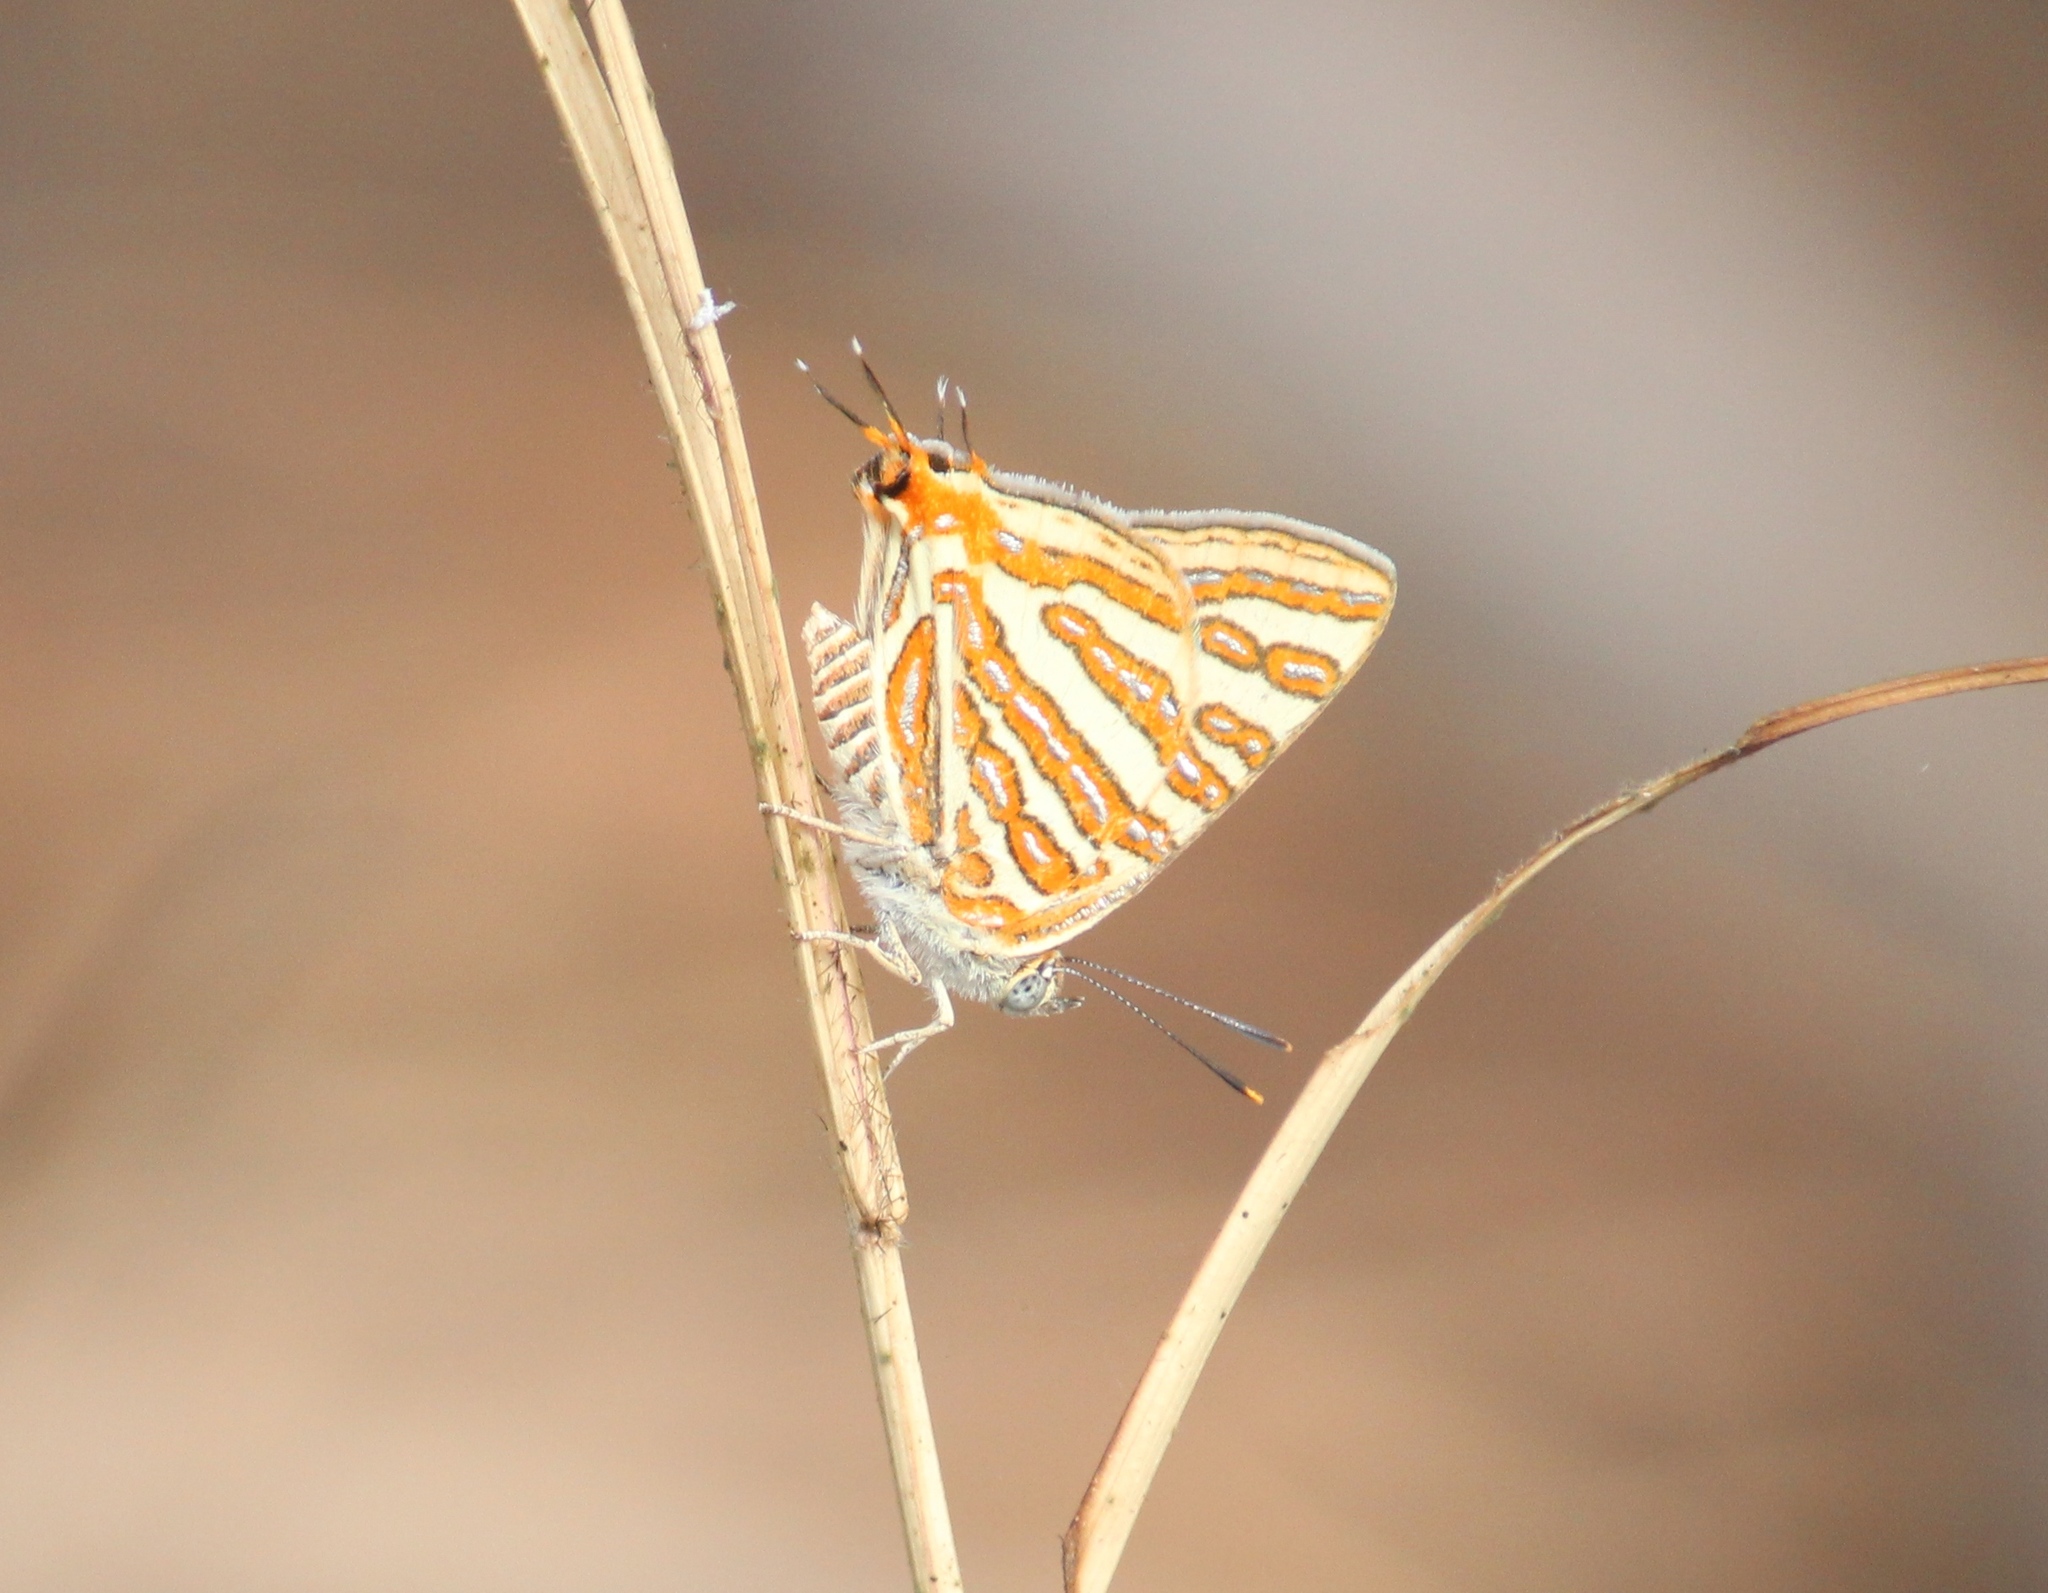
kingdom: Animalia
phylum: Arthropoda
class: Insecta
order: Lepidoptera
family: Lycaenidae
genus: Cigaritis
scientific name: Cigaritis vulcanus
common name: Common silverline
